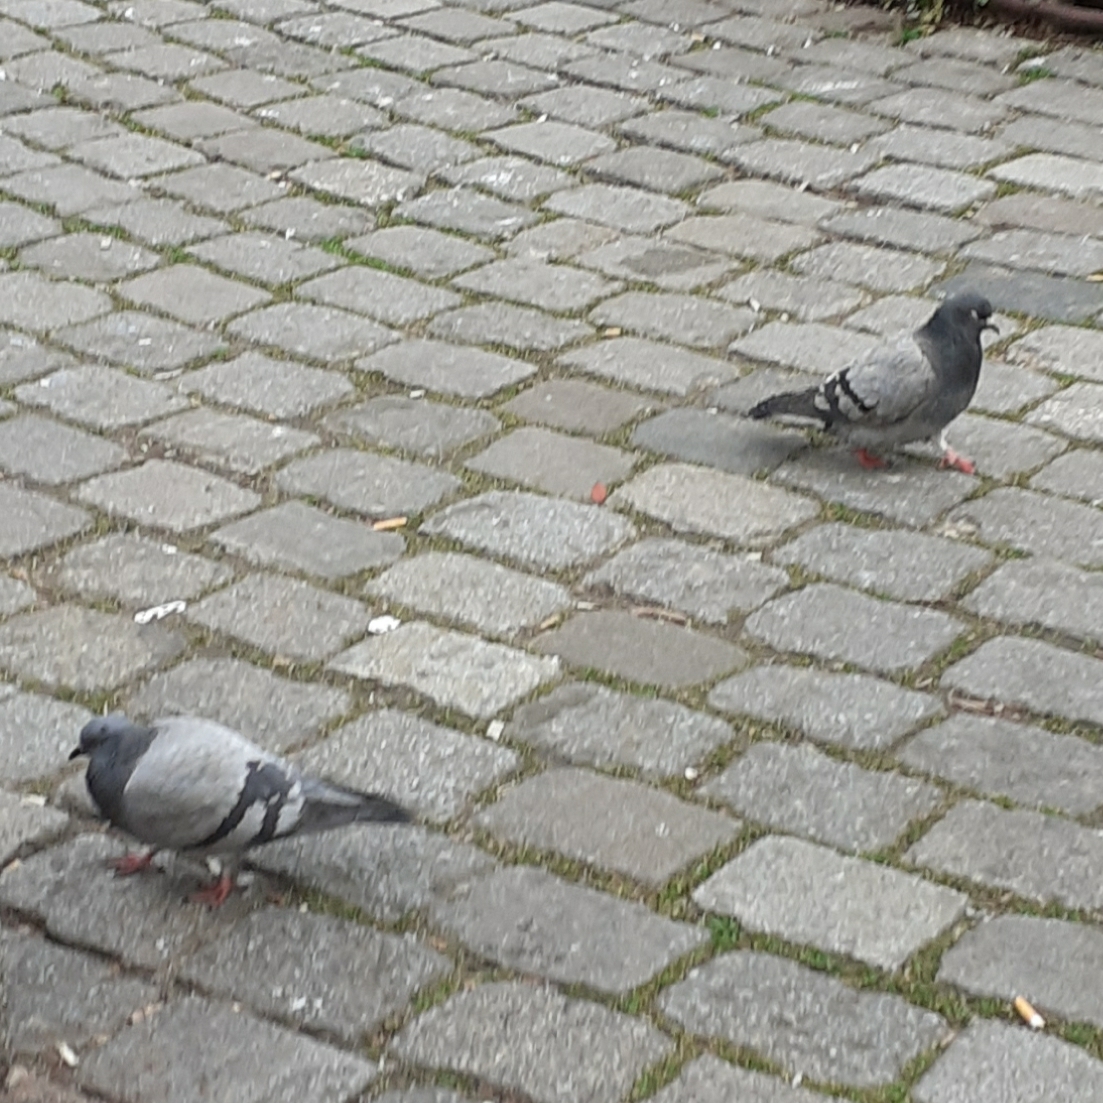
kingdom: Animalia
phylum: Chordata
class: Aves
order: Columbiformes
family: Columbidae
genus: Columba
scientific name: Columba livia
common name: Rock pigeon
